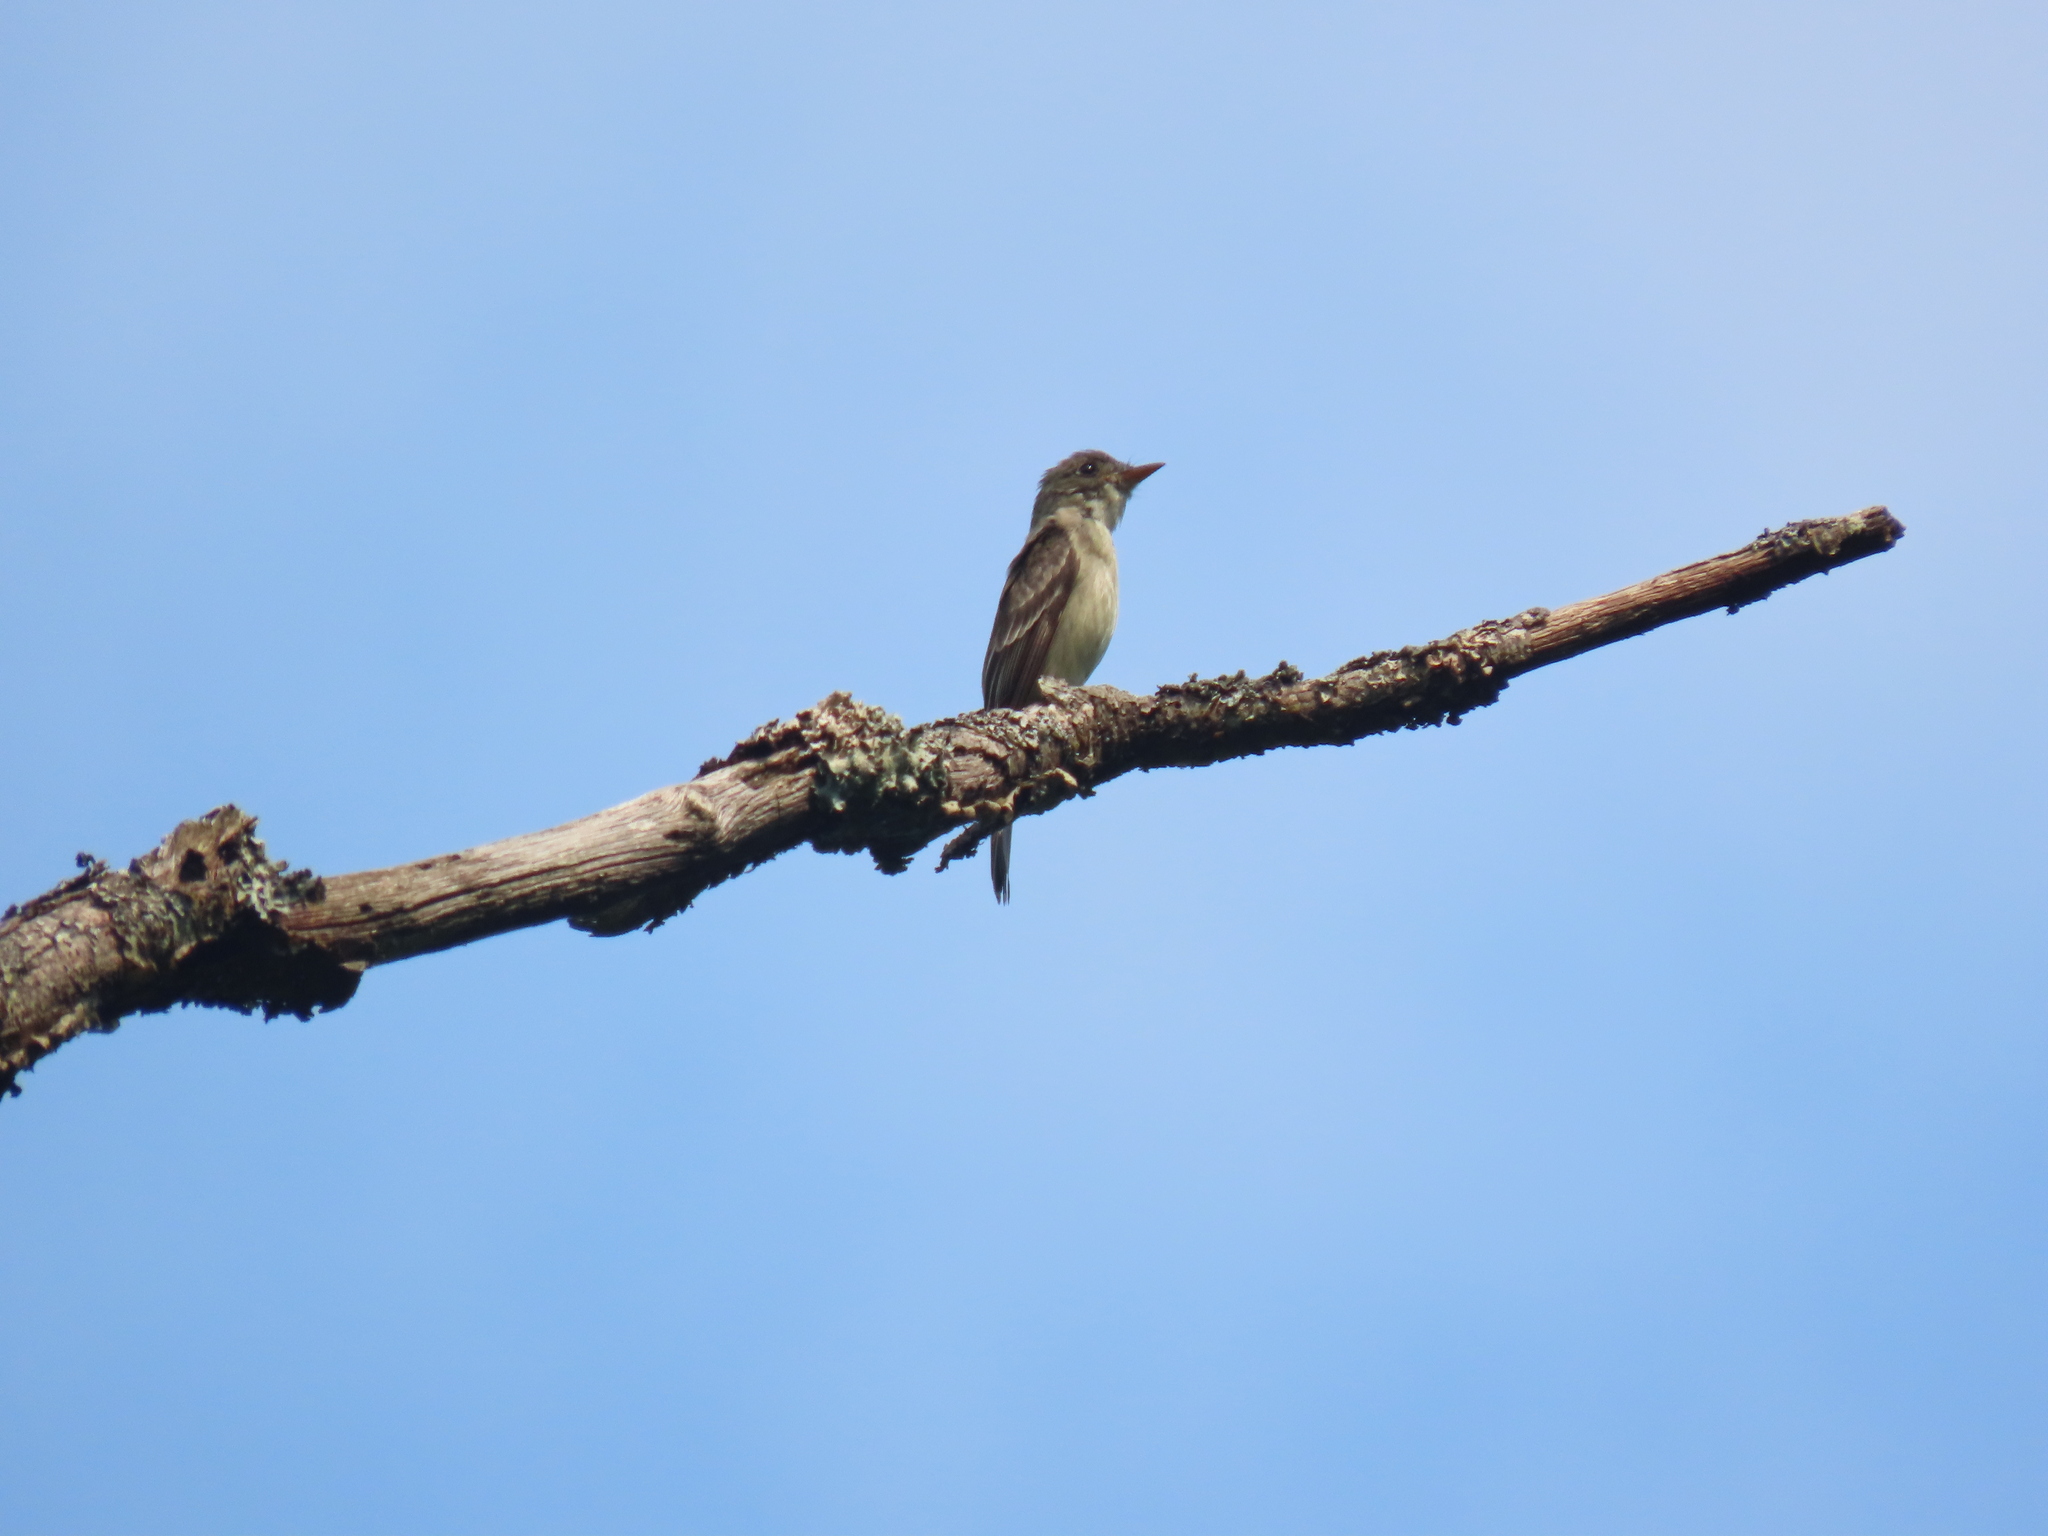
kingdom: Animalia
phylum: Chordata
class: Aves
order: Passeriformes
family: Tyrannidae
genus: Contopus
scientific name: Contopus virens
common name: Eastern wood-pewee
